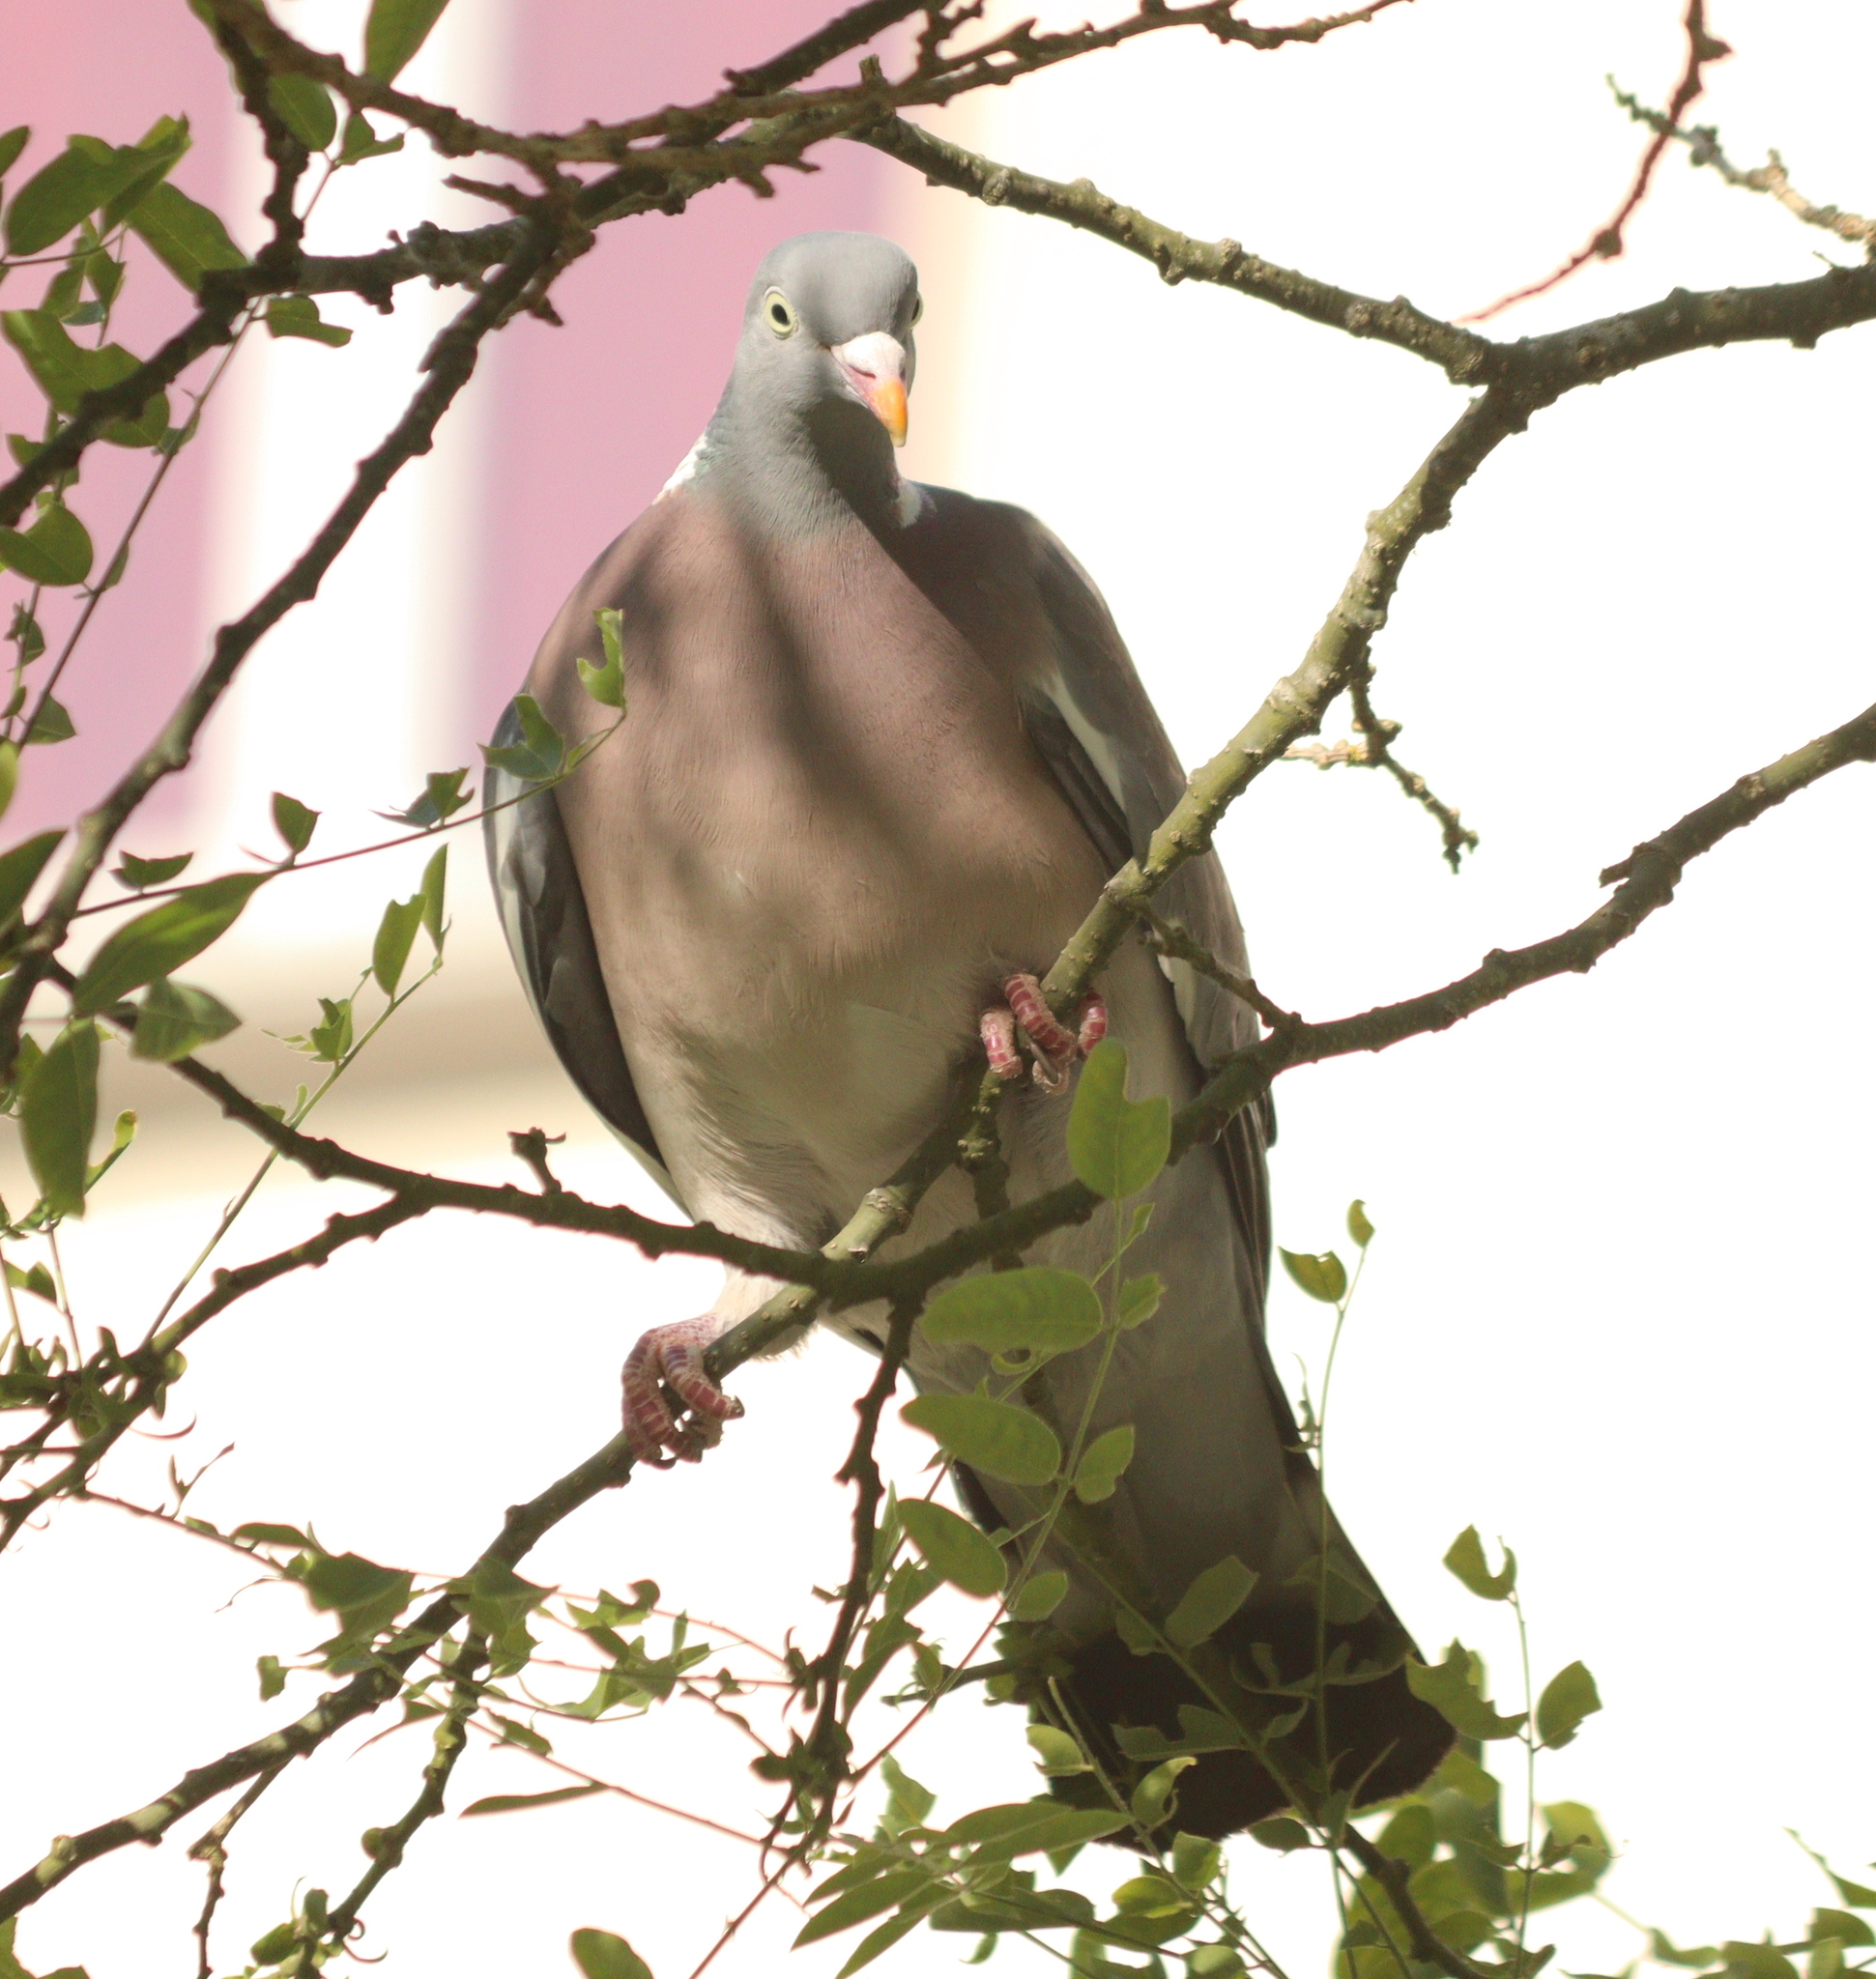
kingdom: Animalia
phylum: Chordata
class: Aves
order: Columbiformes
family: Columbidae
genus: Columba
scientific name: Columba palumbus
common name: Common wood pigeon
